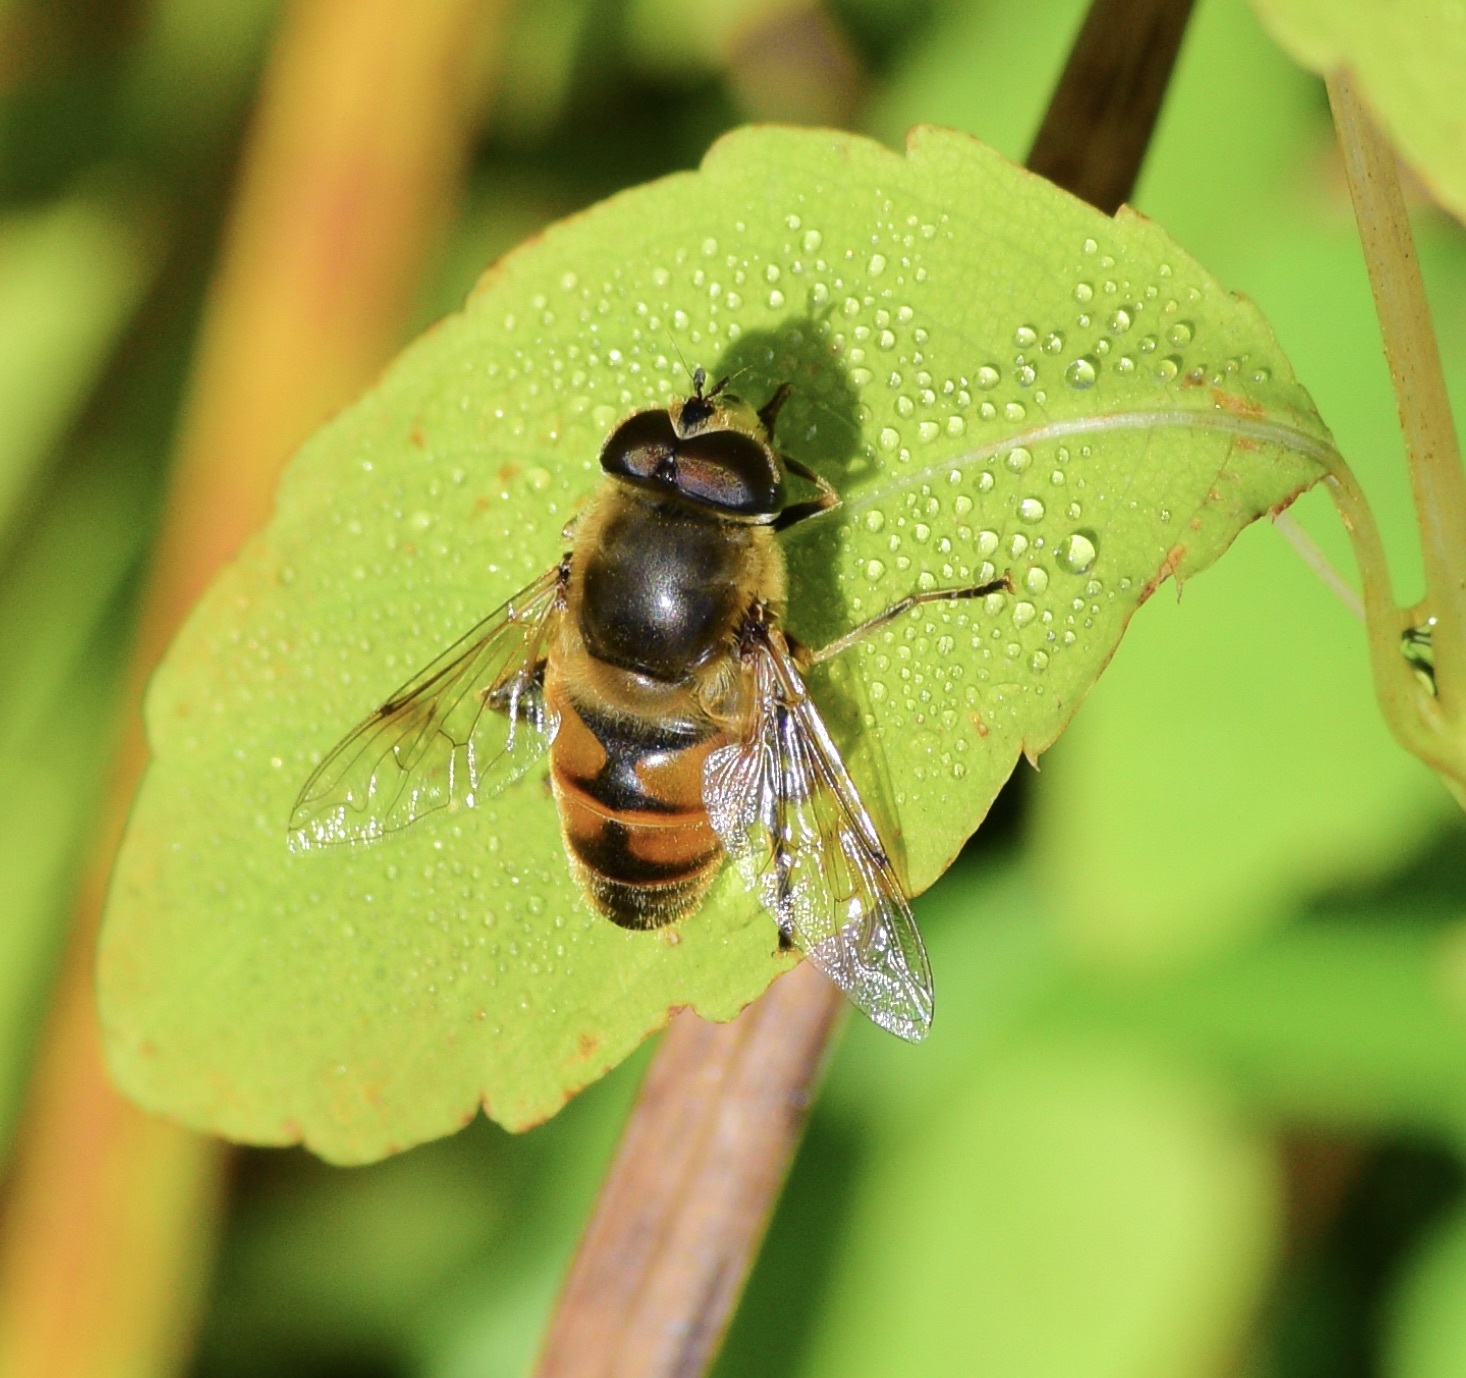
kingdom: Animalia
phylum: Arthropoda
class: Insecta
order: Diptera
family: Syrphidae
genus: Eristalis
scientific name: Eristalis tenax
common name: Drone fly
